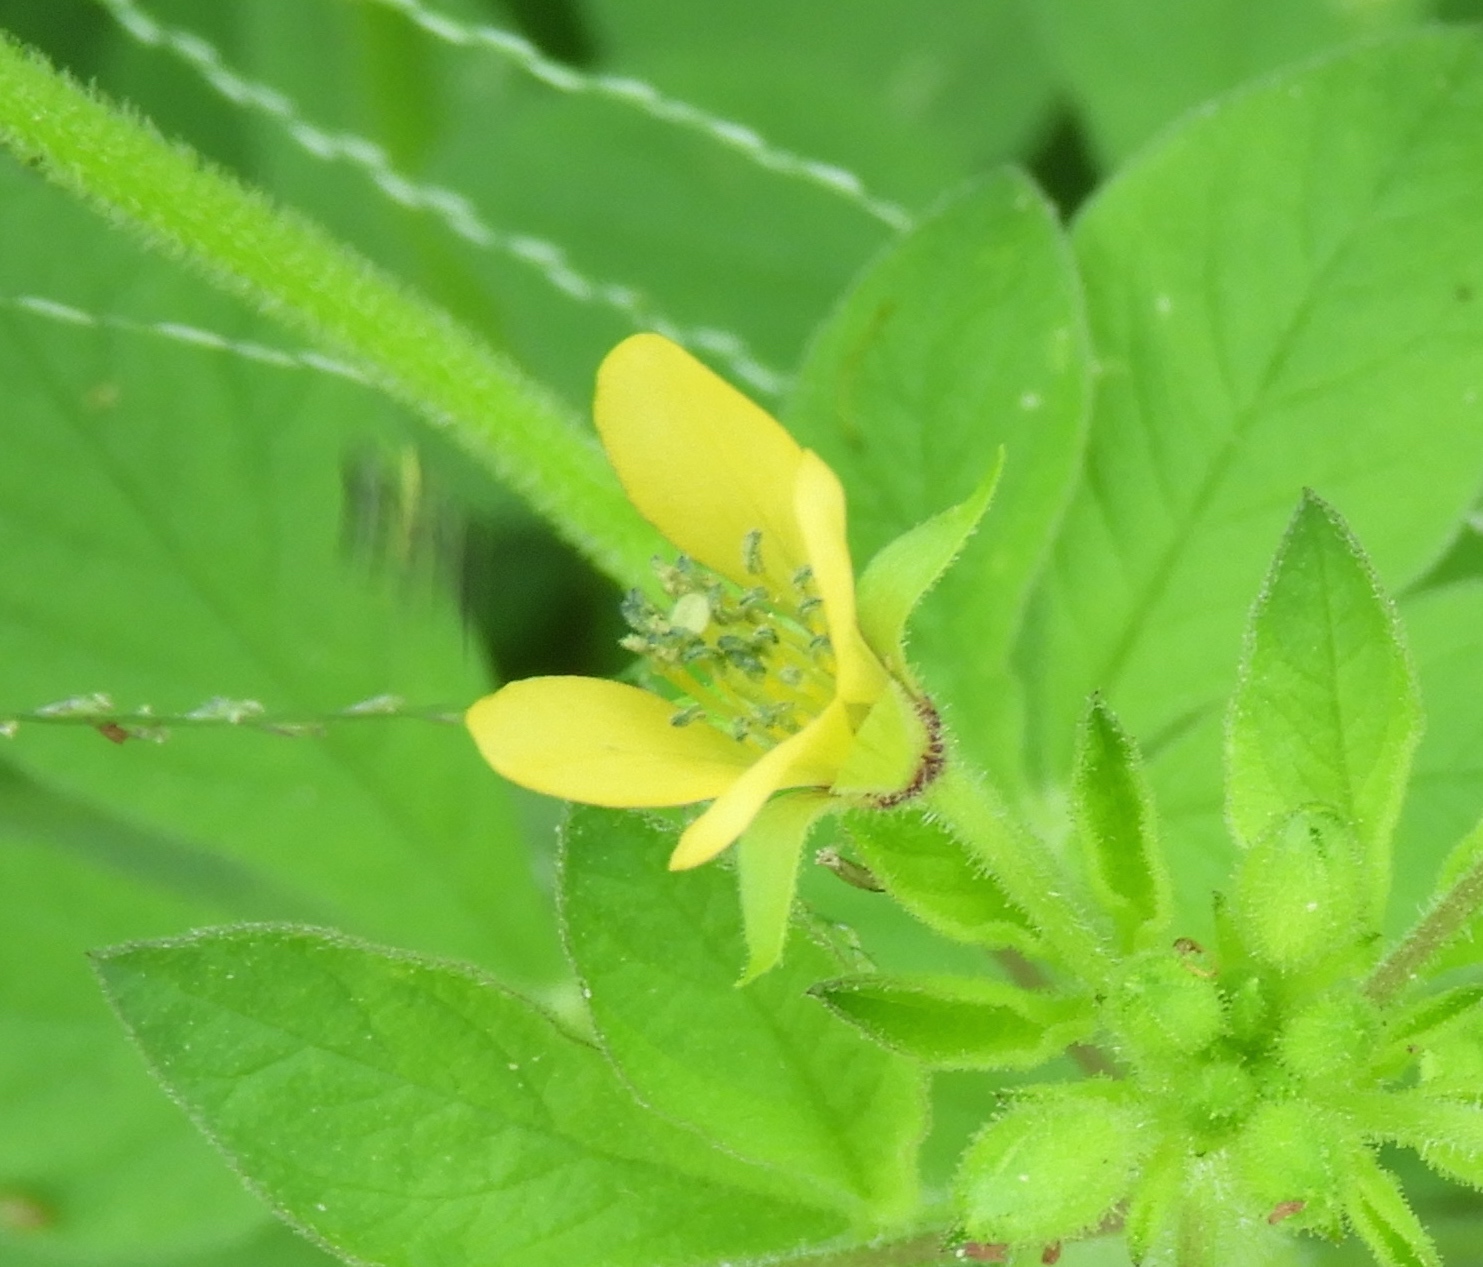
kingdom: Plantae
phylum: Tracheophyta
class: Magnoliopsida
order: Brassicales
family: Cleomaceae
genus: Arivela
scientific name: Arivela viscosa
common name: Asian spiderflower
